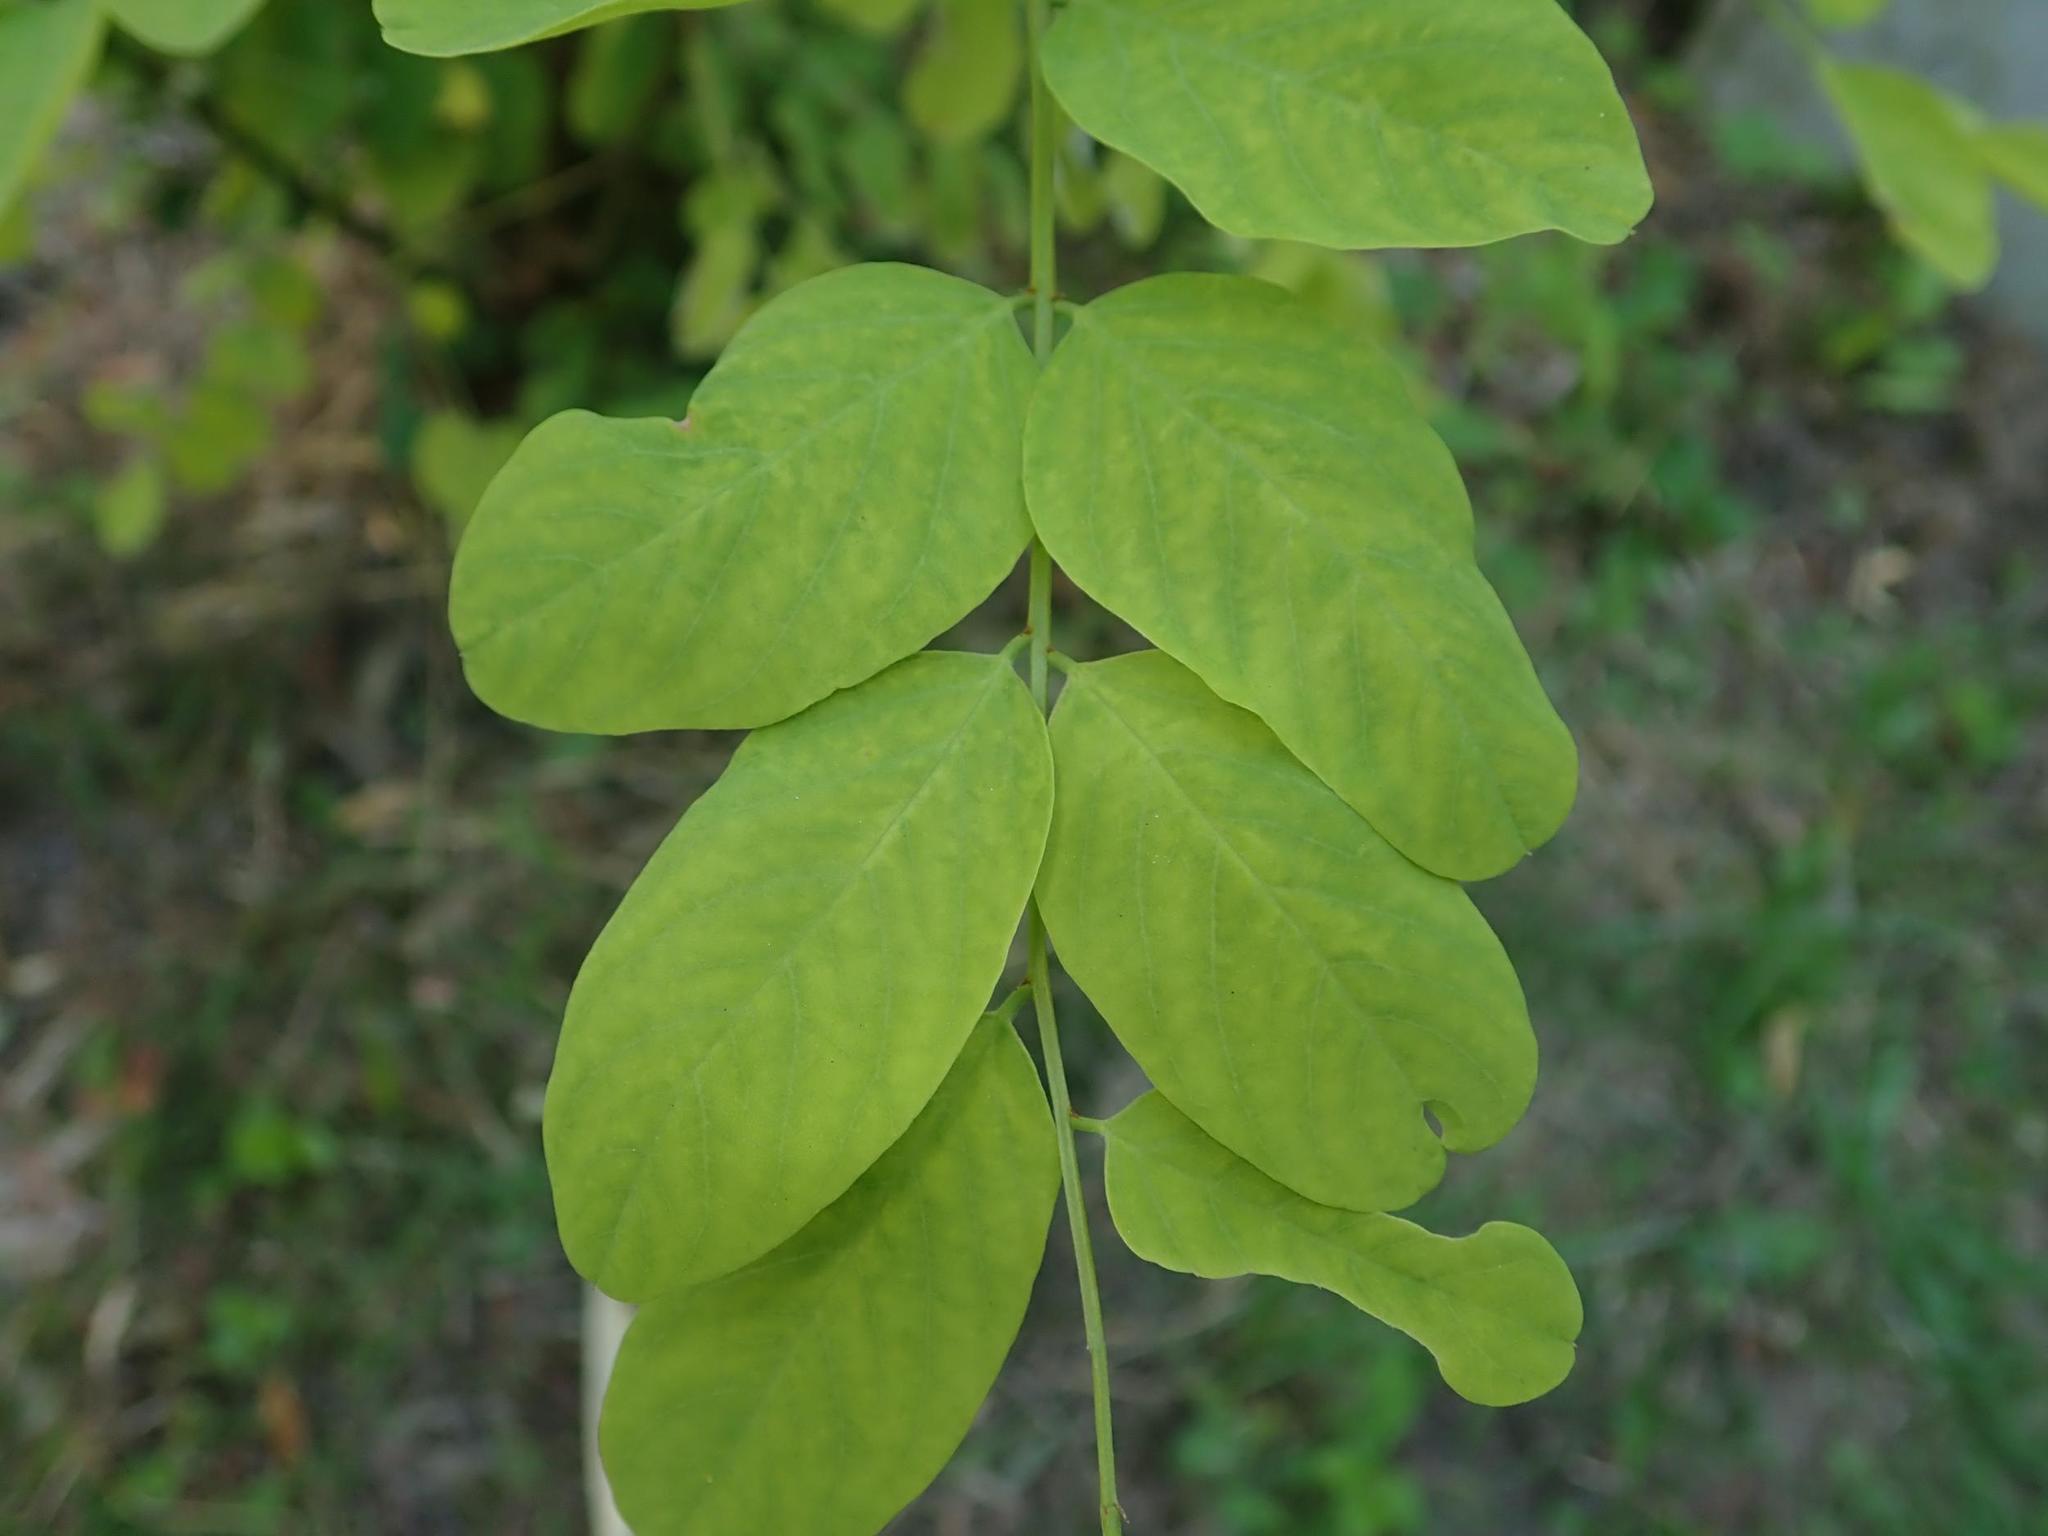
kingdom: Plantae
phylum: Tracheophyta
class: Magnoliopsida
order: Fabales
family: Fabaceae
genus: Robinia
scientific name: Robinia pseudoacacia
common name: Black locust
